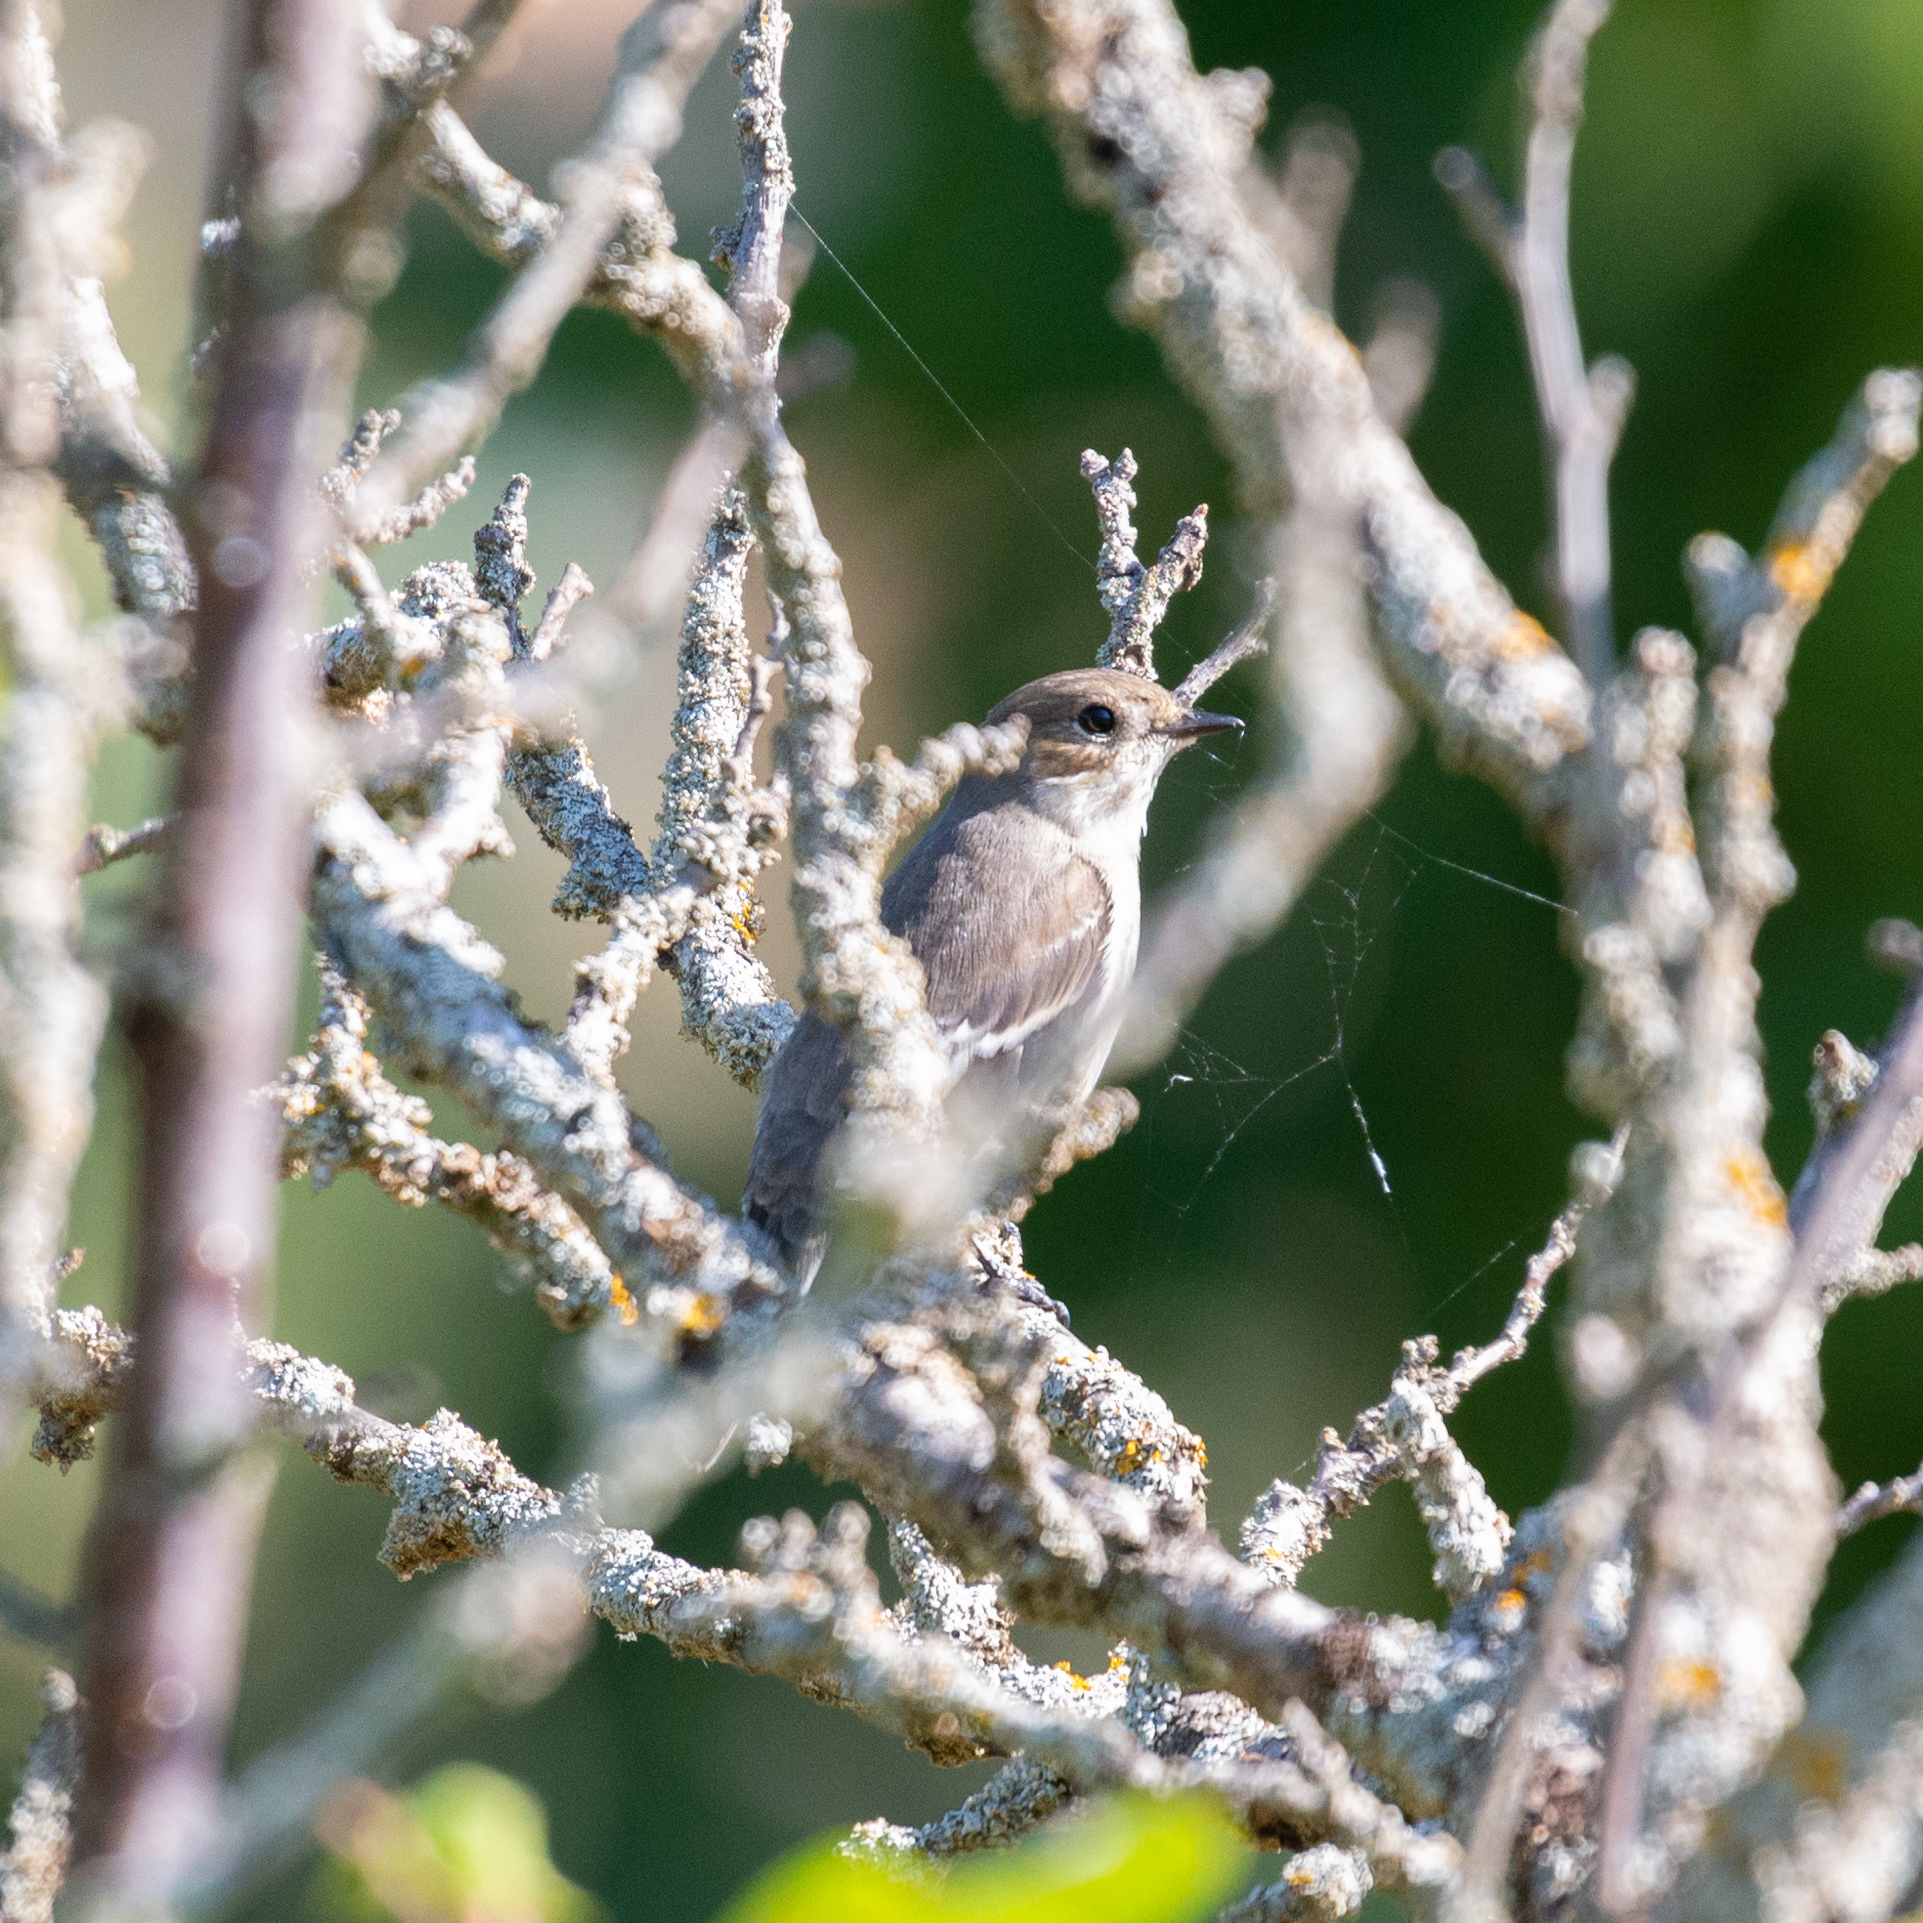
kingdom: Animalia
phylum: Chordata
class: Aves
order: Passeriformes
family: Muscicapidae
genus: Ficedula
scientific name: Ficedula hypoleuca
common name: European pied flycatcher
